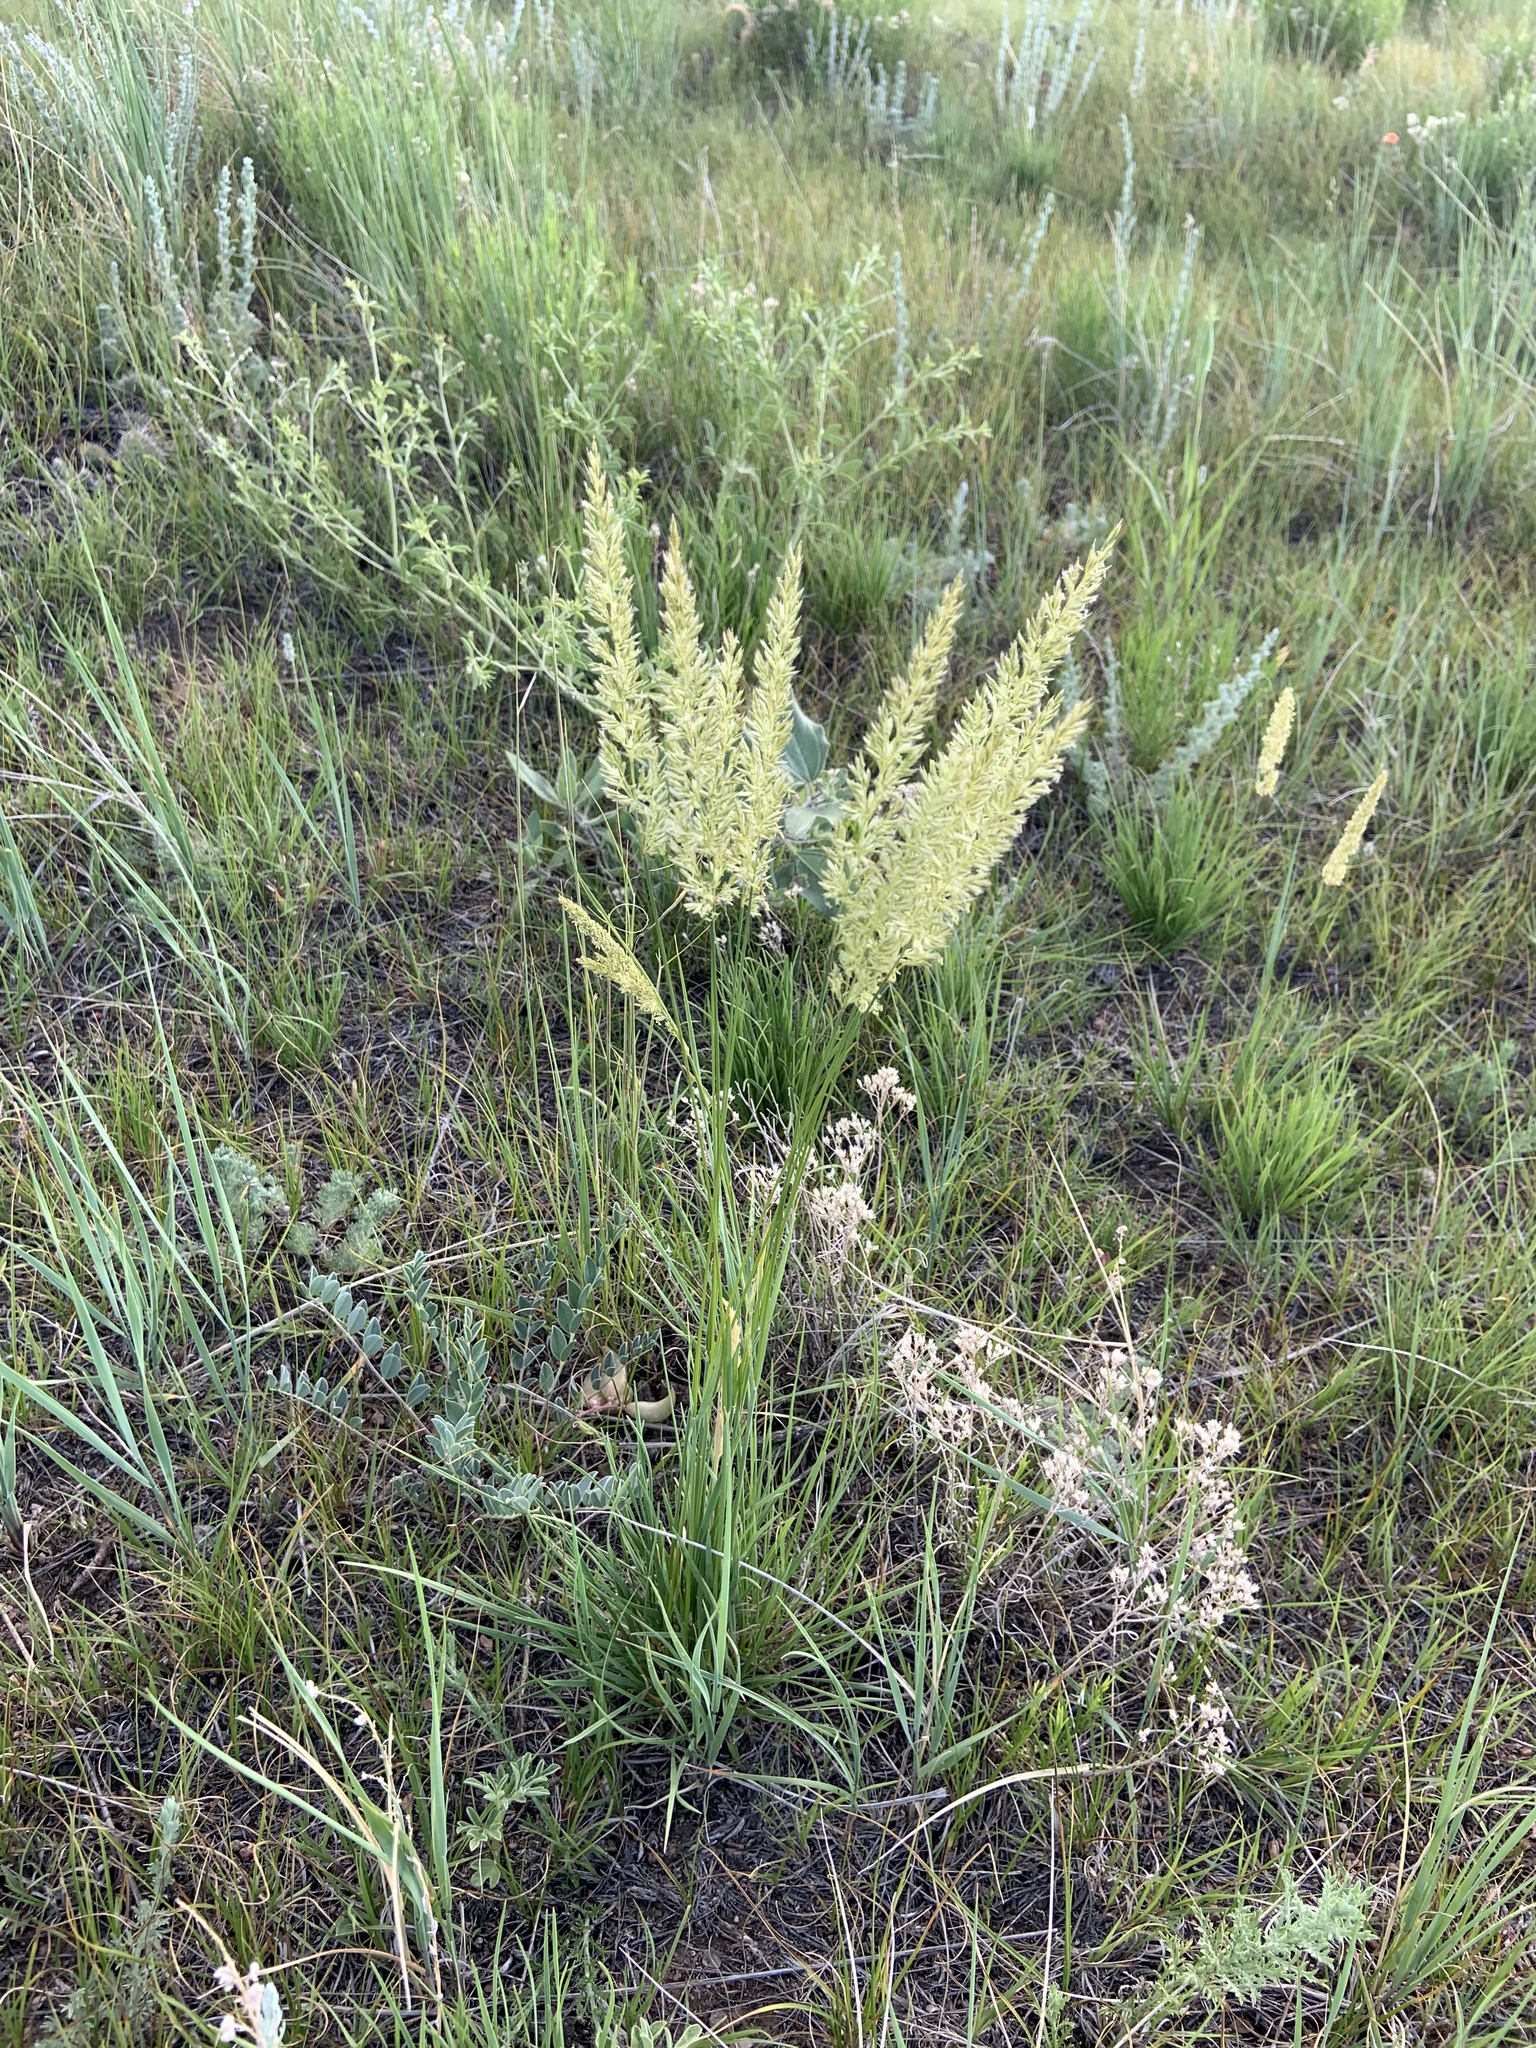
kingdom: Plantae
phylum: Tracheophyta
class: Liliopsida
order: Poales
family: Poaceae
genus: Koeleria
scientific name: Koeleria macrantha
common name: Crested hair-grass
